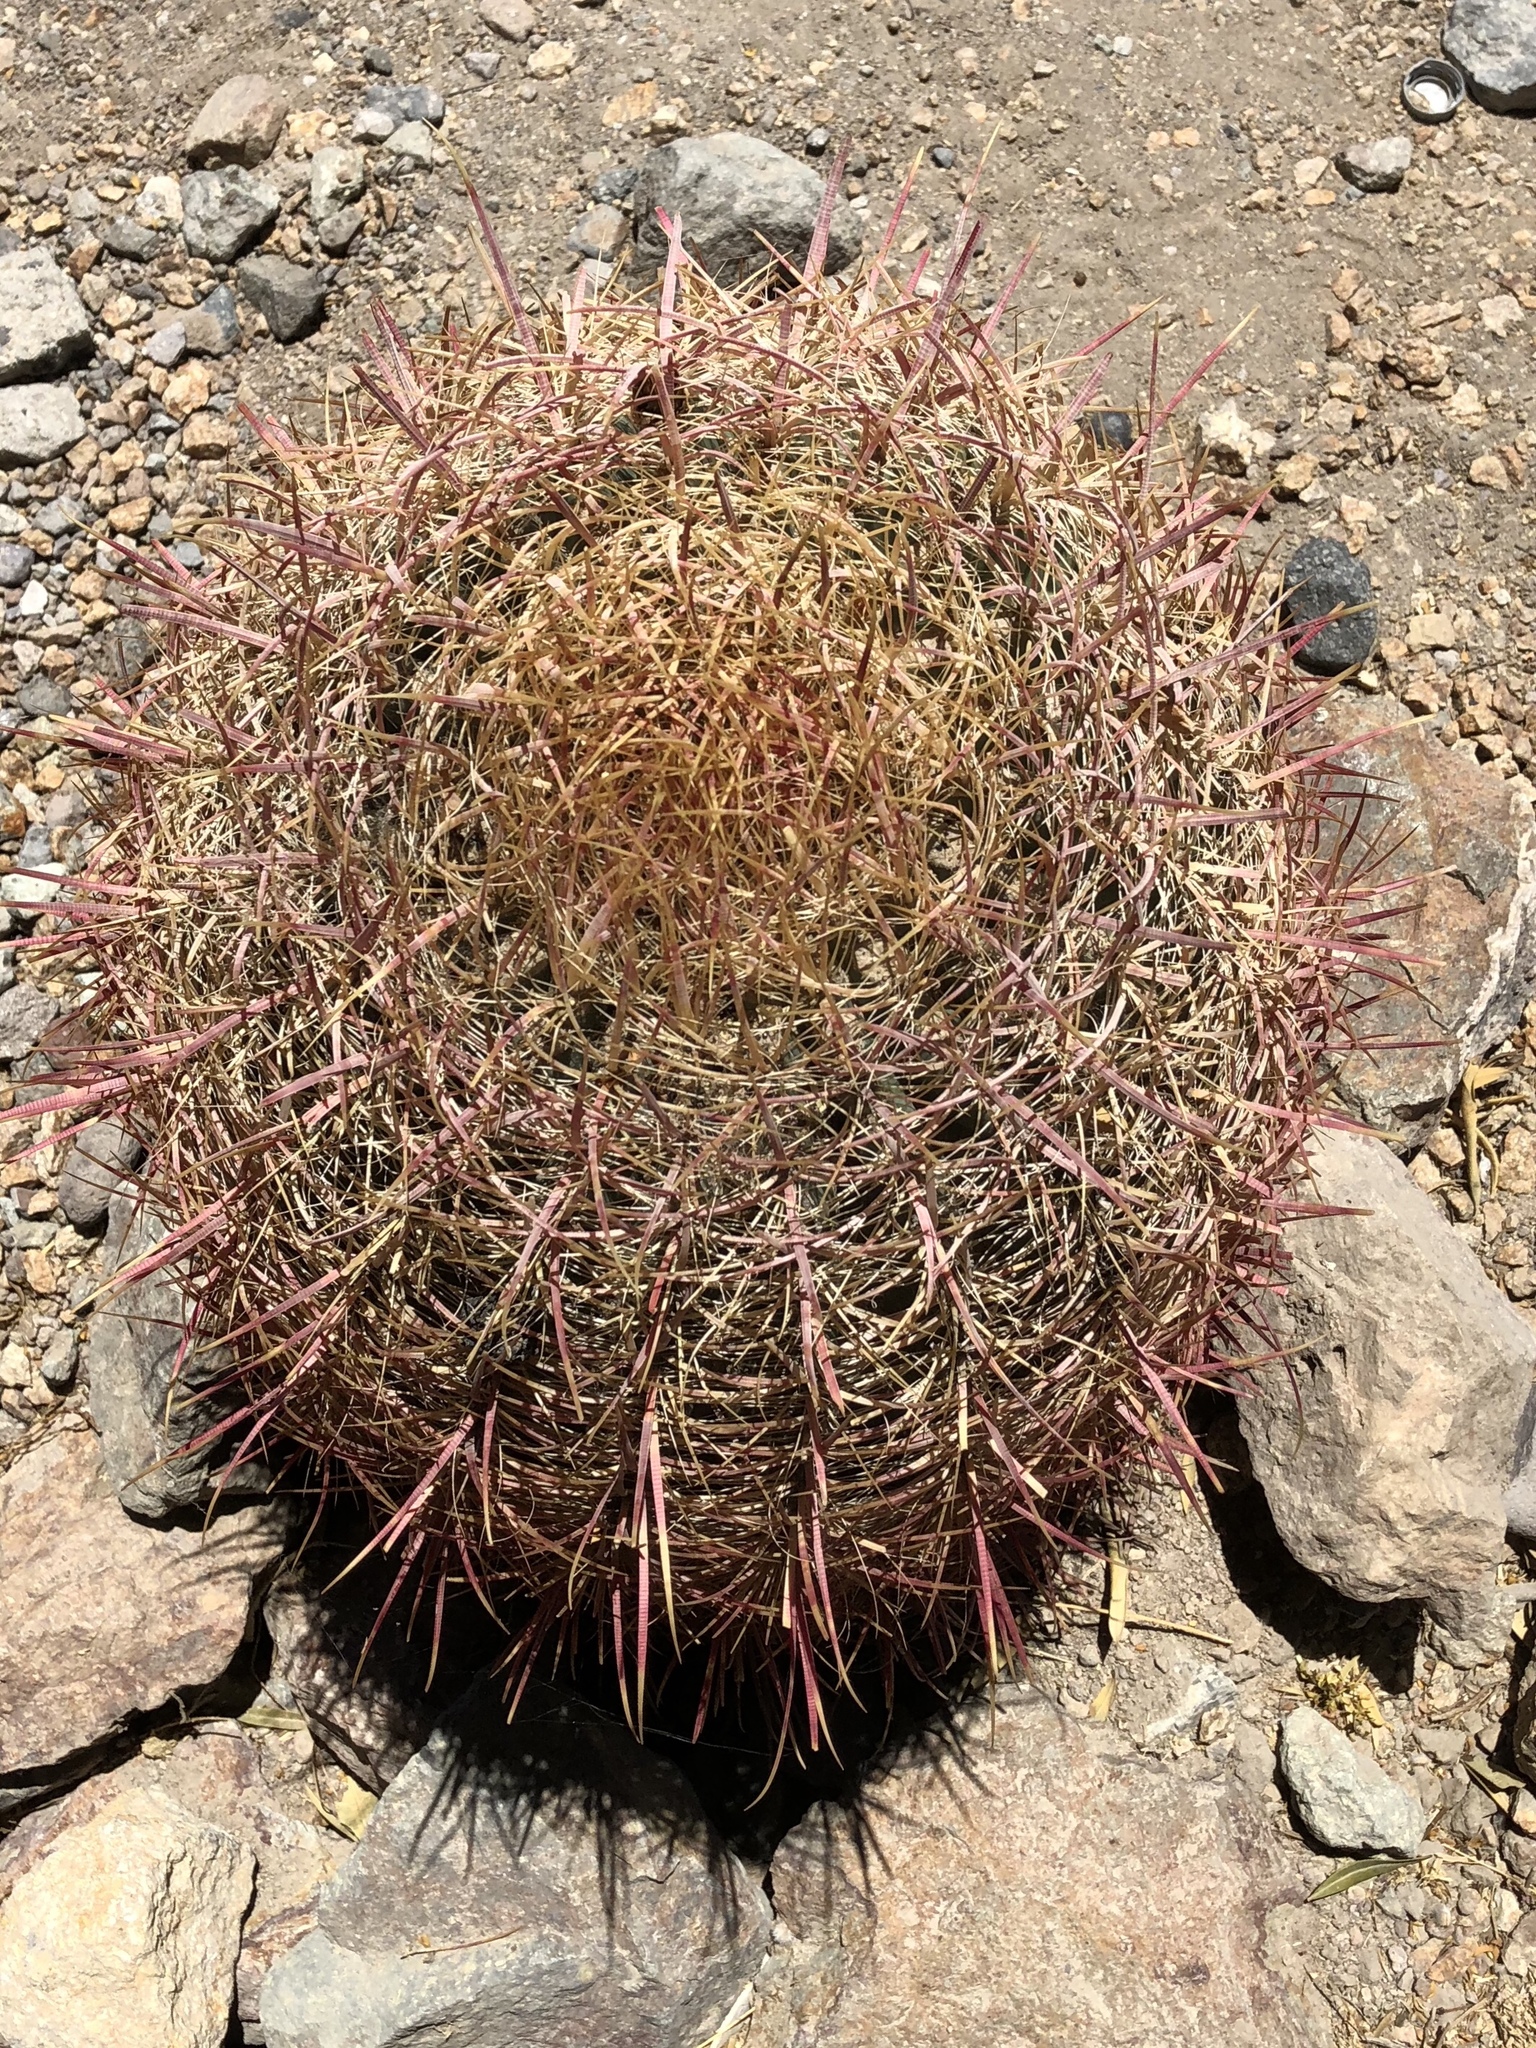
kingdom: Plantae
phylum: Tracheophyta
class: Magnoliopsida
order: Caryophyllales
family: Cactaceae
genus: Ferocactus
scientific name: Ferocactus cylindraceus
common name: California barrel cactus
